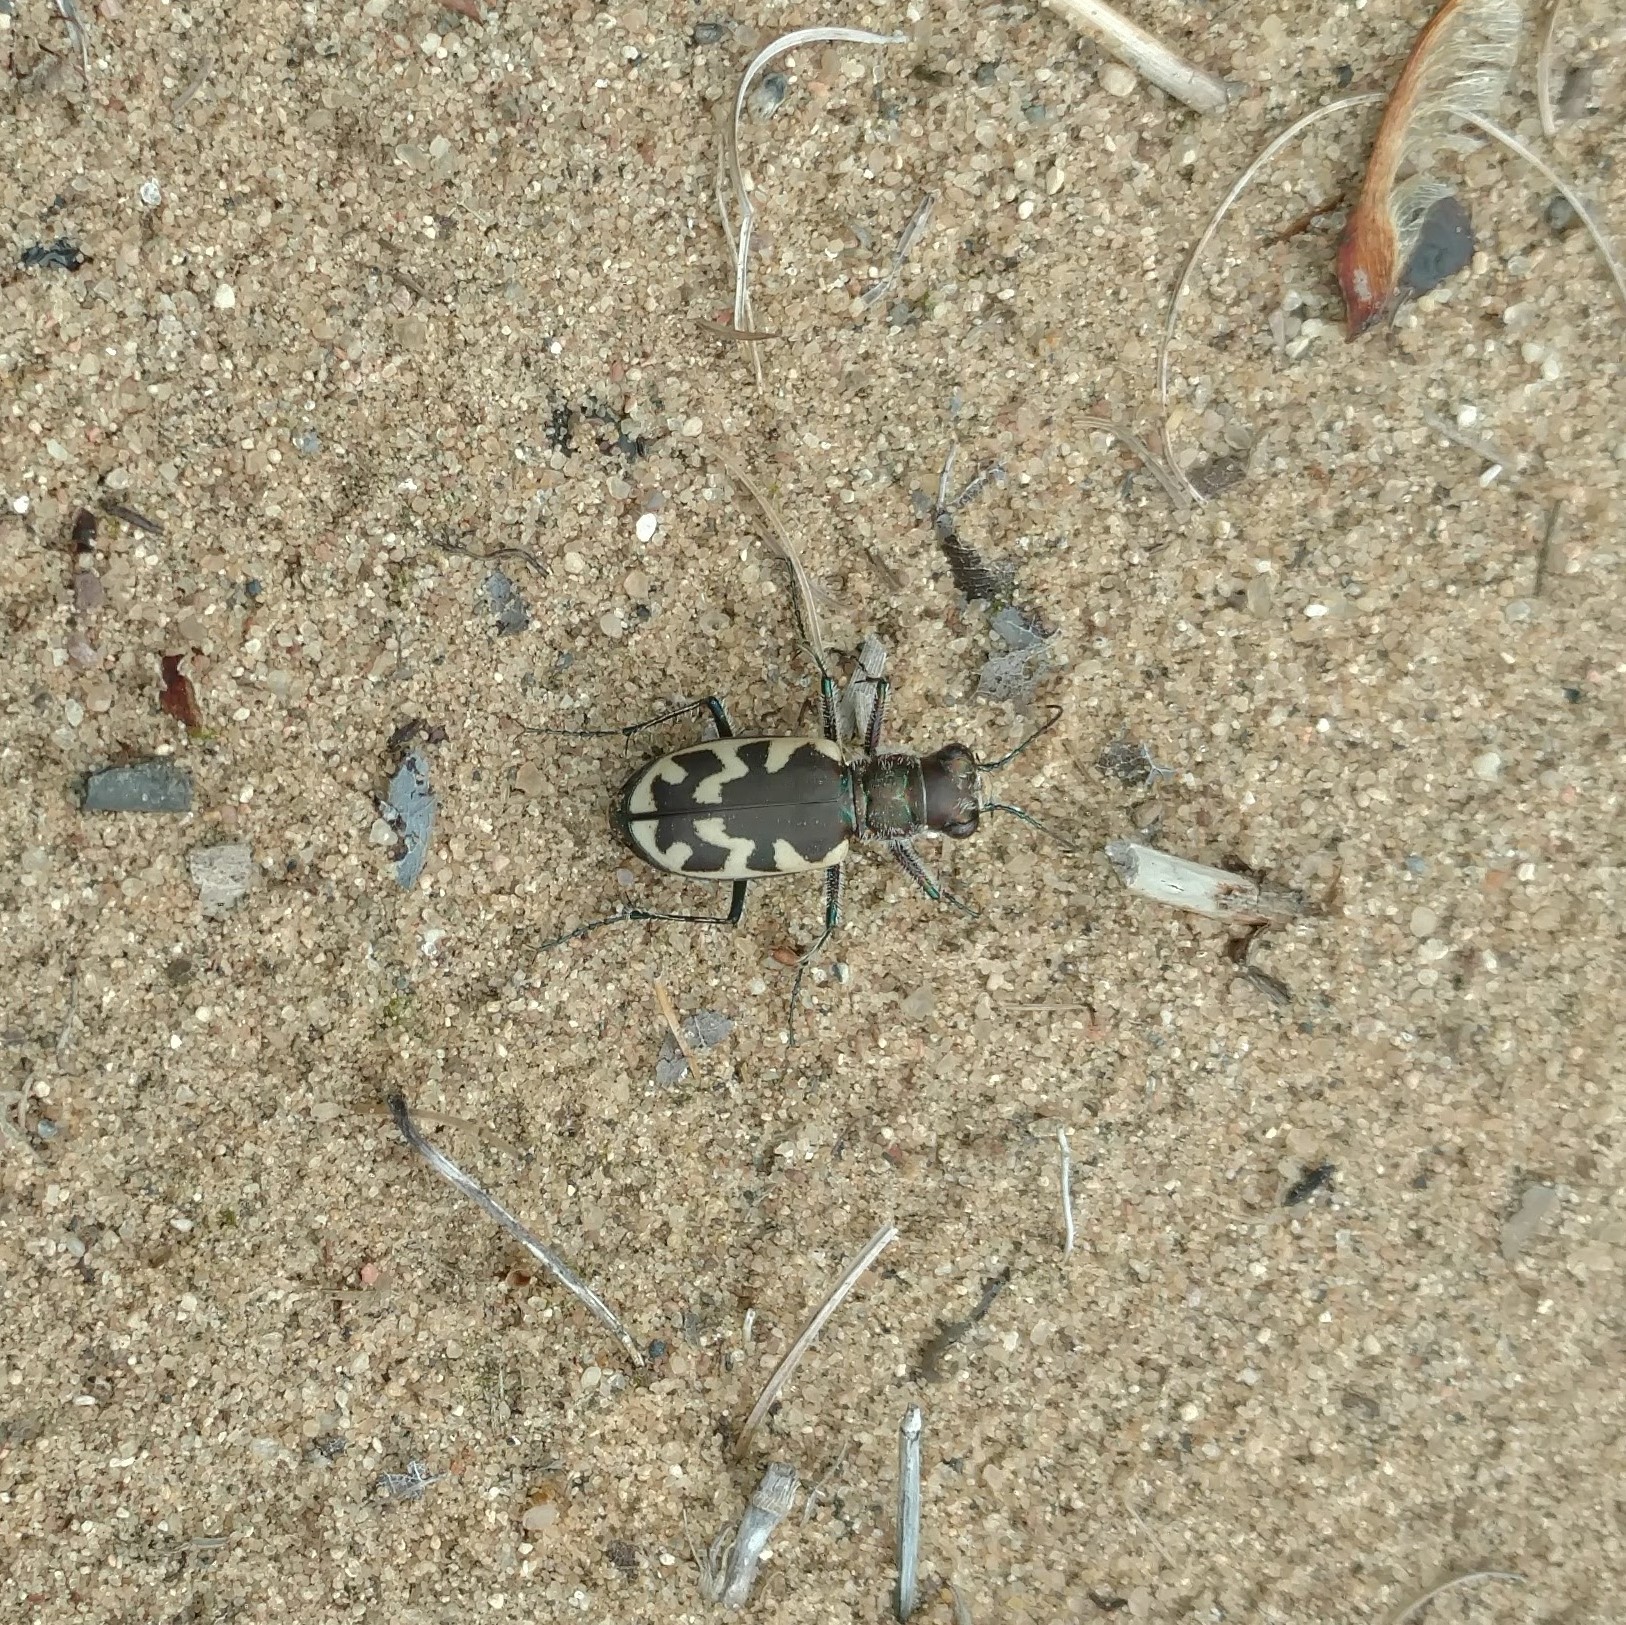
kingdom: Animalia
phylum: Arthropoda
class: Insecta
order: Coleoptera
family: Carabidae
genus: Cicindela
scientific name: Cicindela formosa
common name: Big sand tiger beetle
